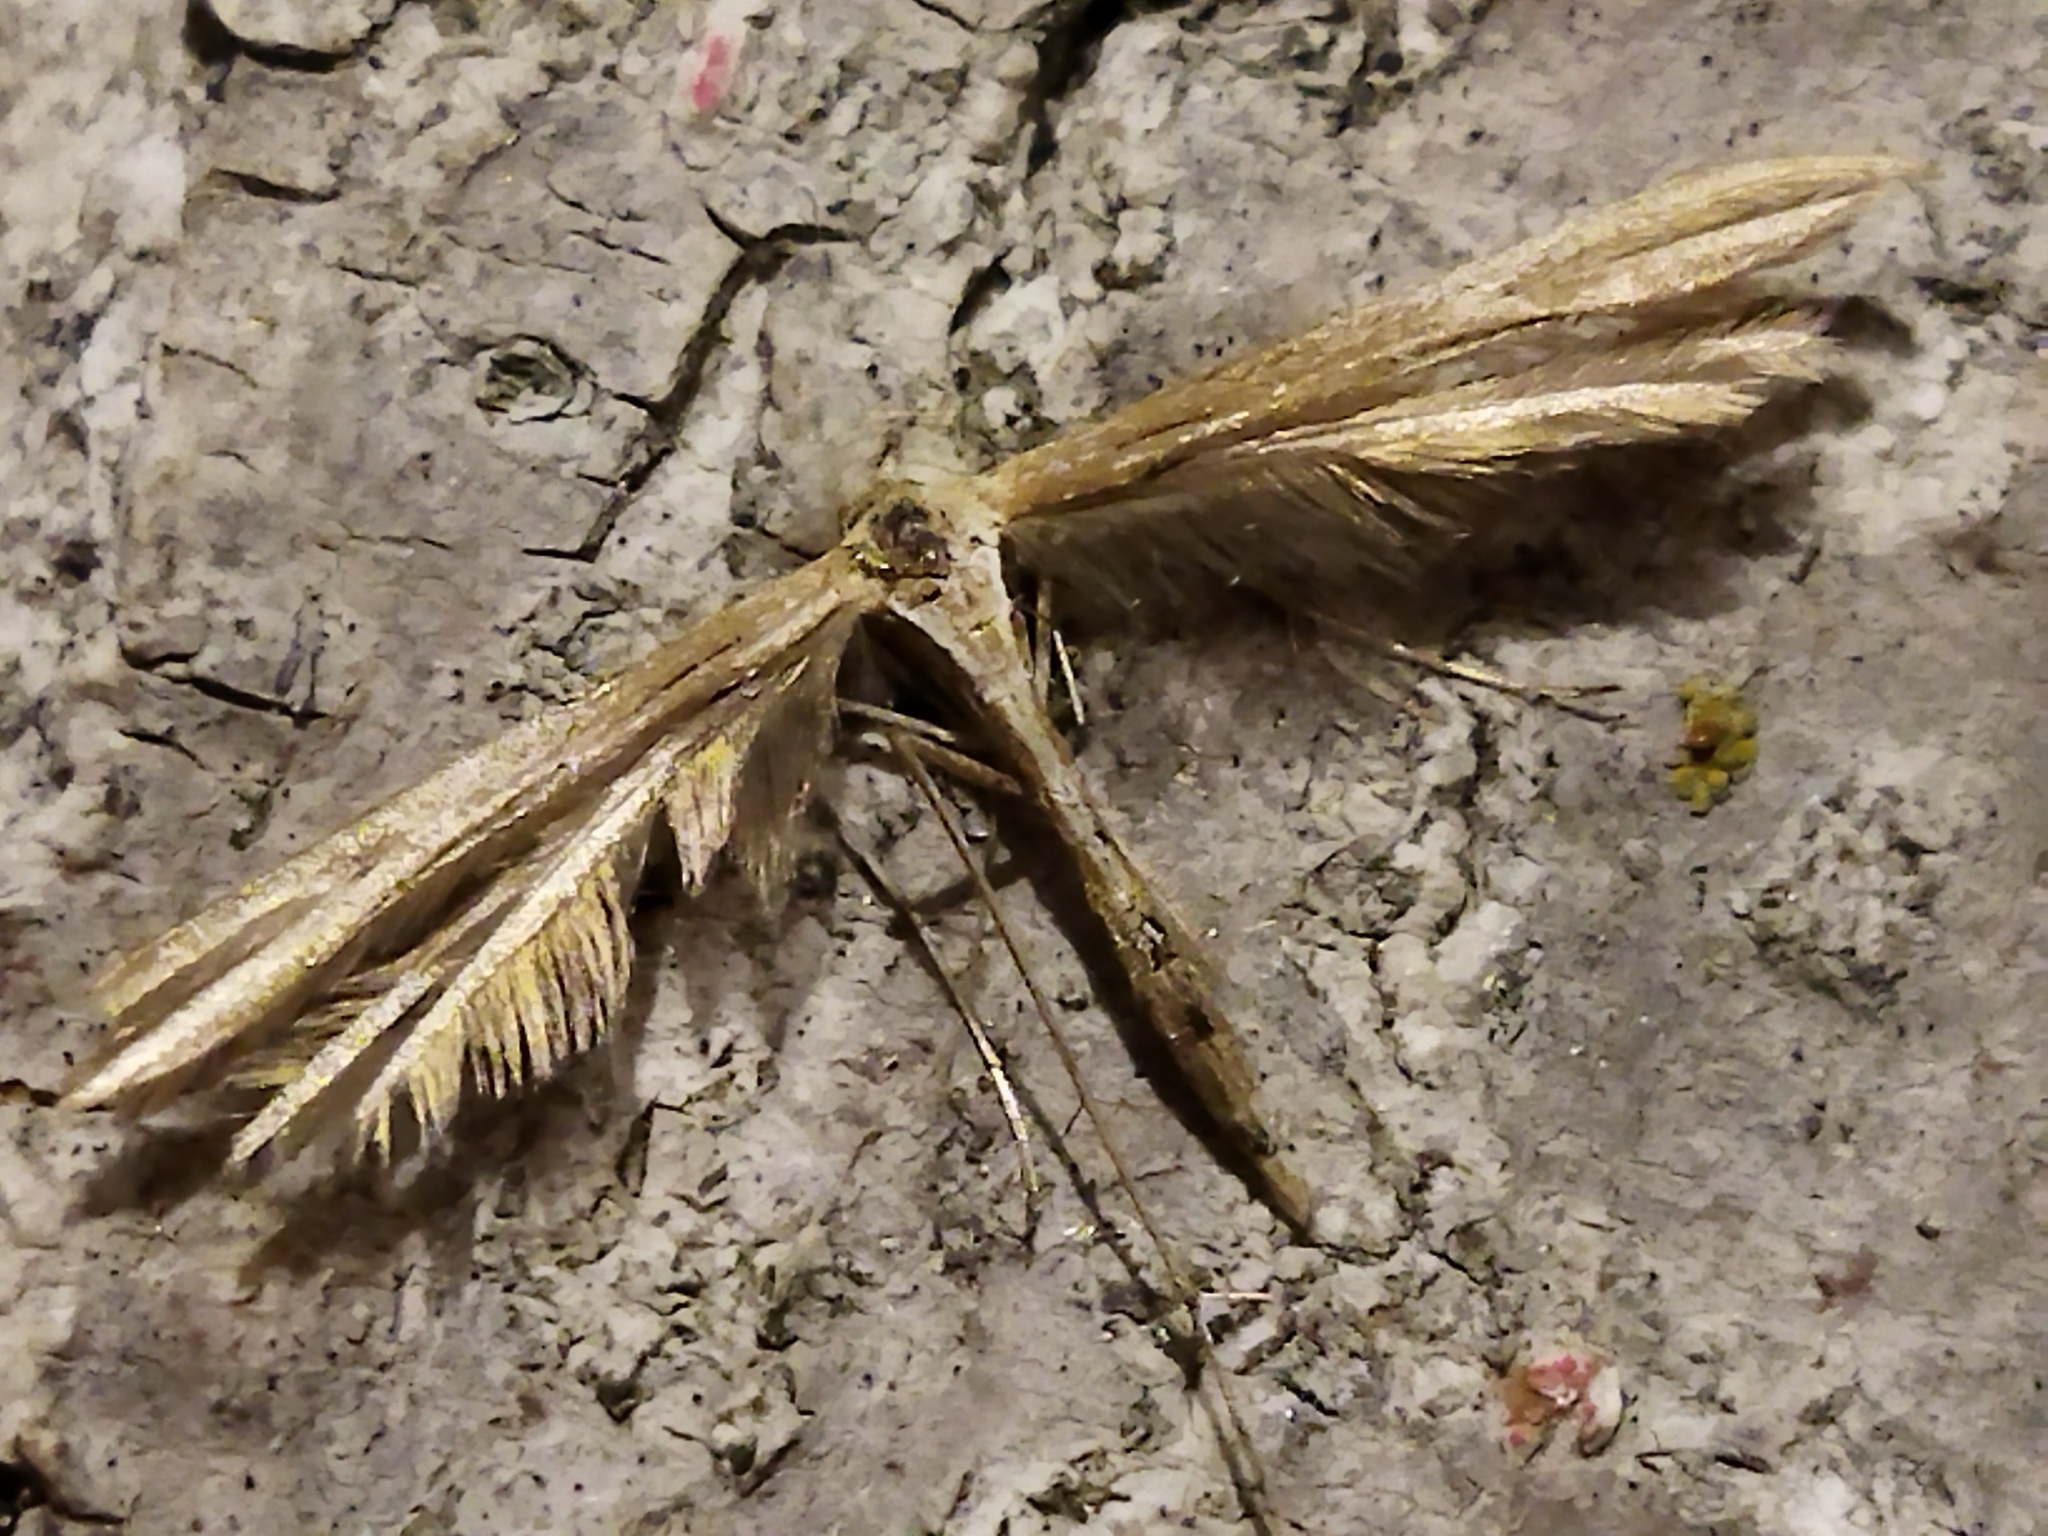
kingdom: Animalia
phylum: Arthropoda
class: Insecta
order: Lepidoptera
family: Pterophoridae
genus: Emmelina
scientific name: Emmelina monodactyla
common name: Common plume
